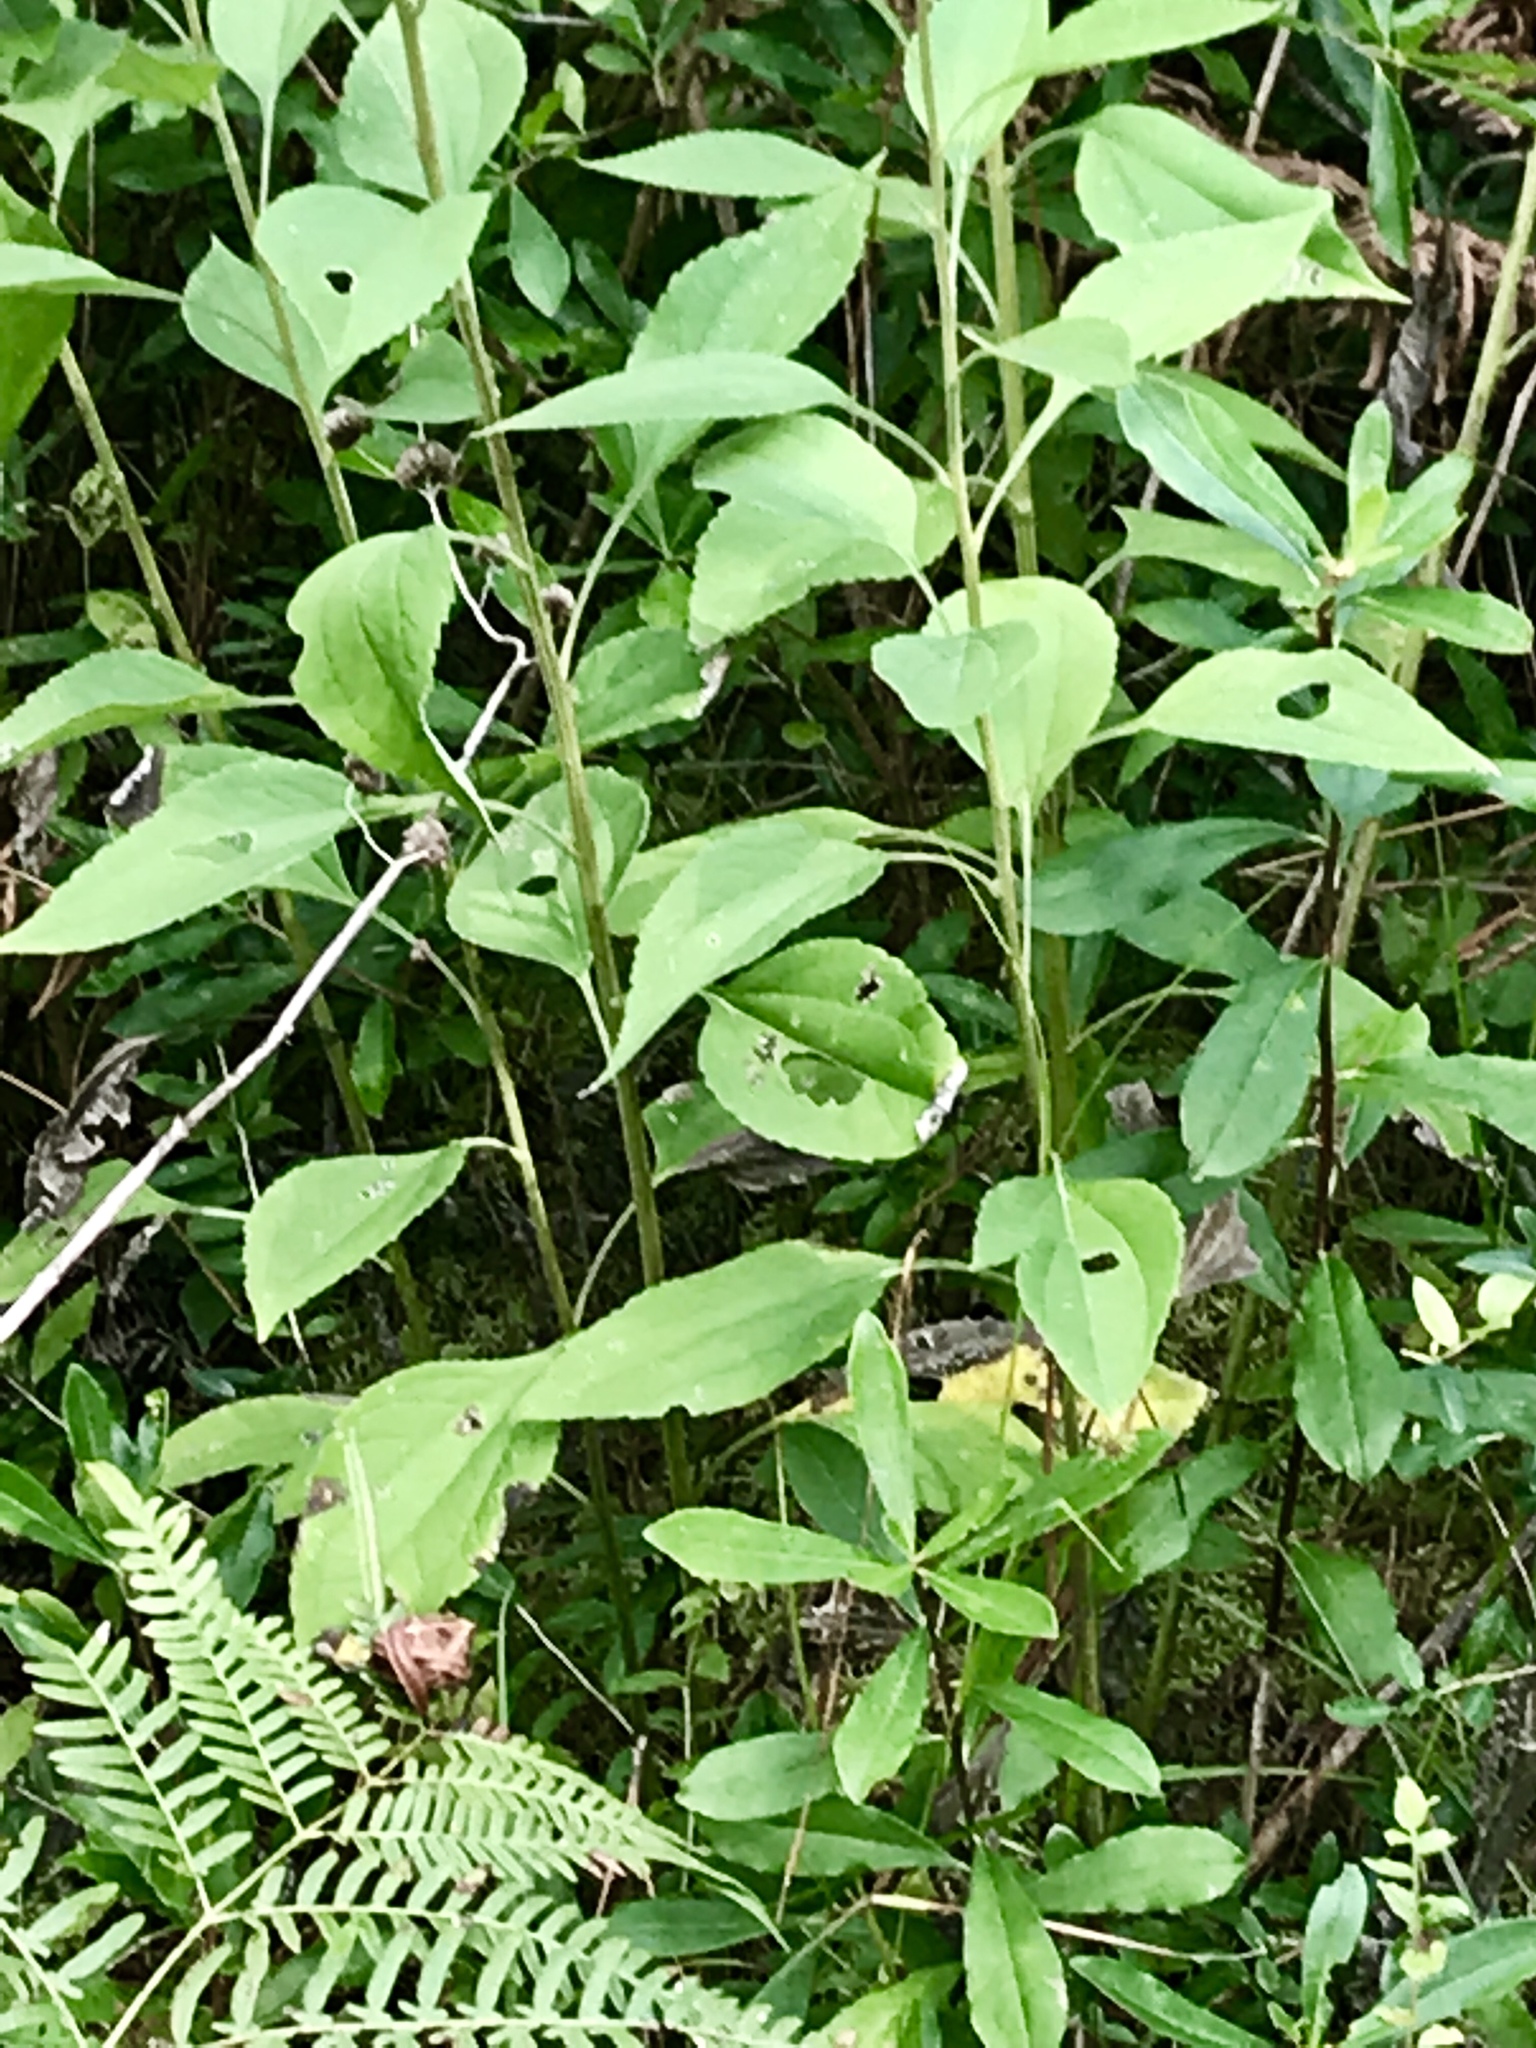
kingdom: Plantae
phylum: Tracheophyta
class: Magnoliopsida
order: Asterales
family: Asteraceae
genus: Rudbeckia
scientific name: Rudbeckia subtomentosa
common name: Sweet coneflower
